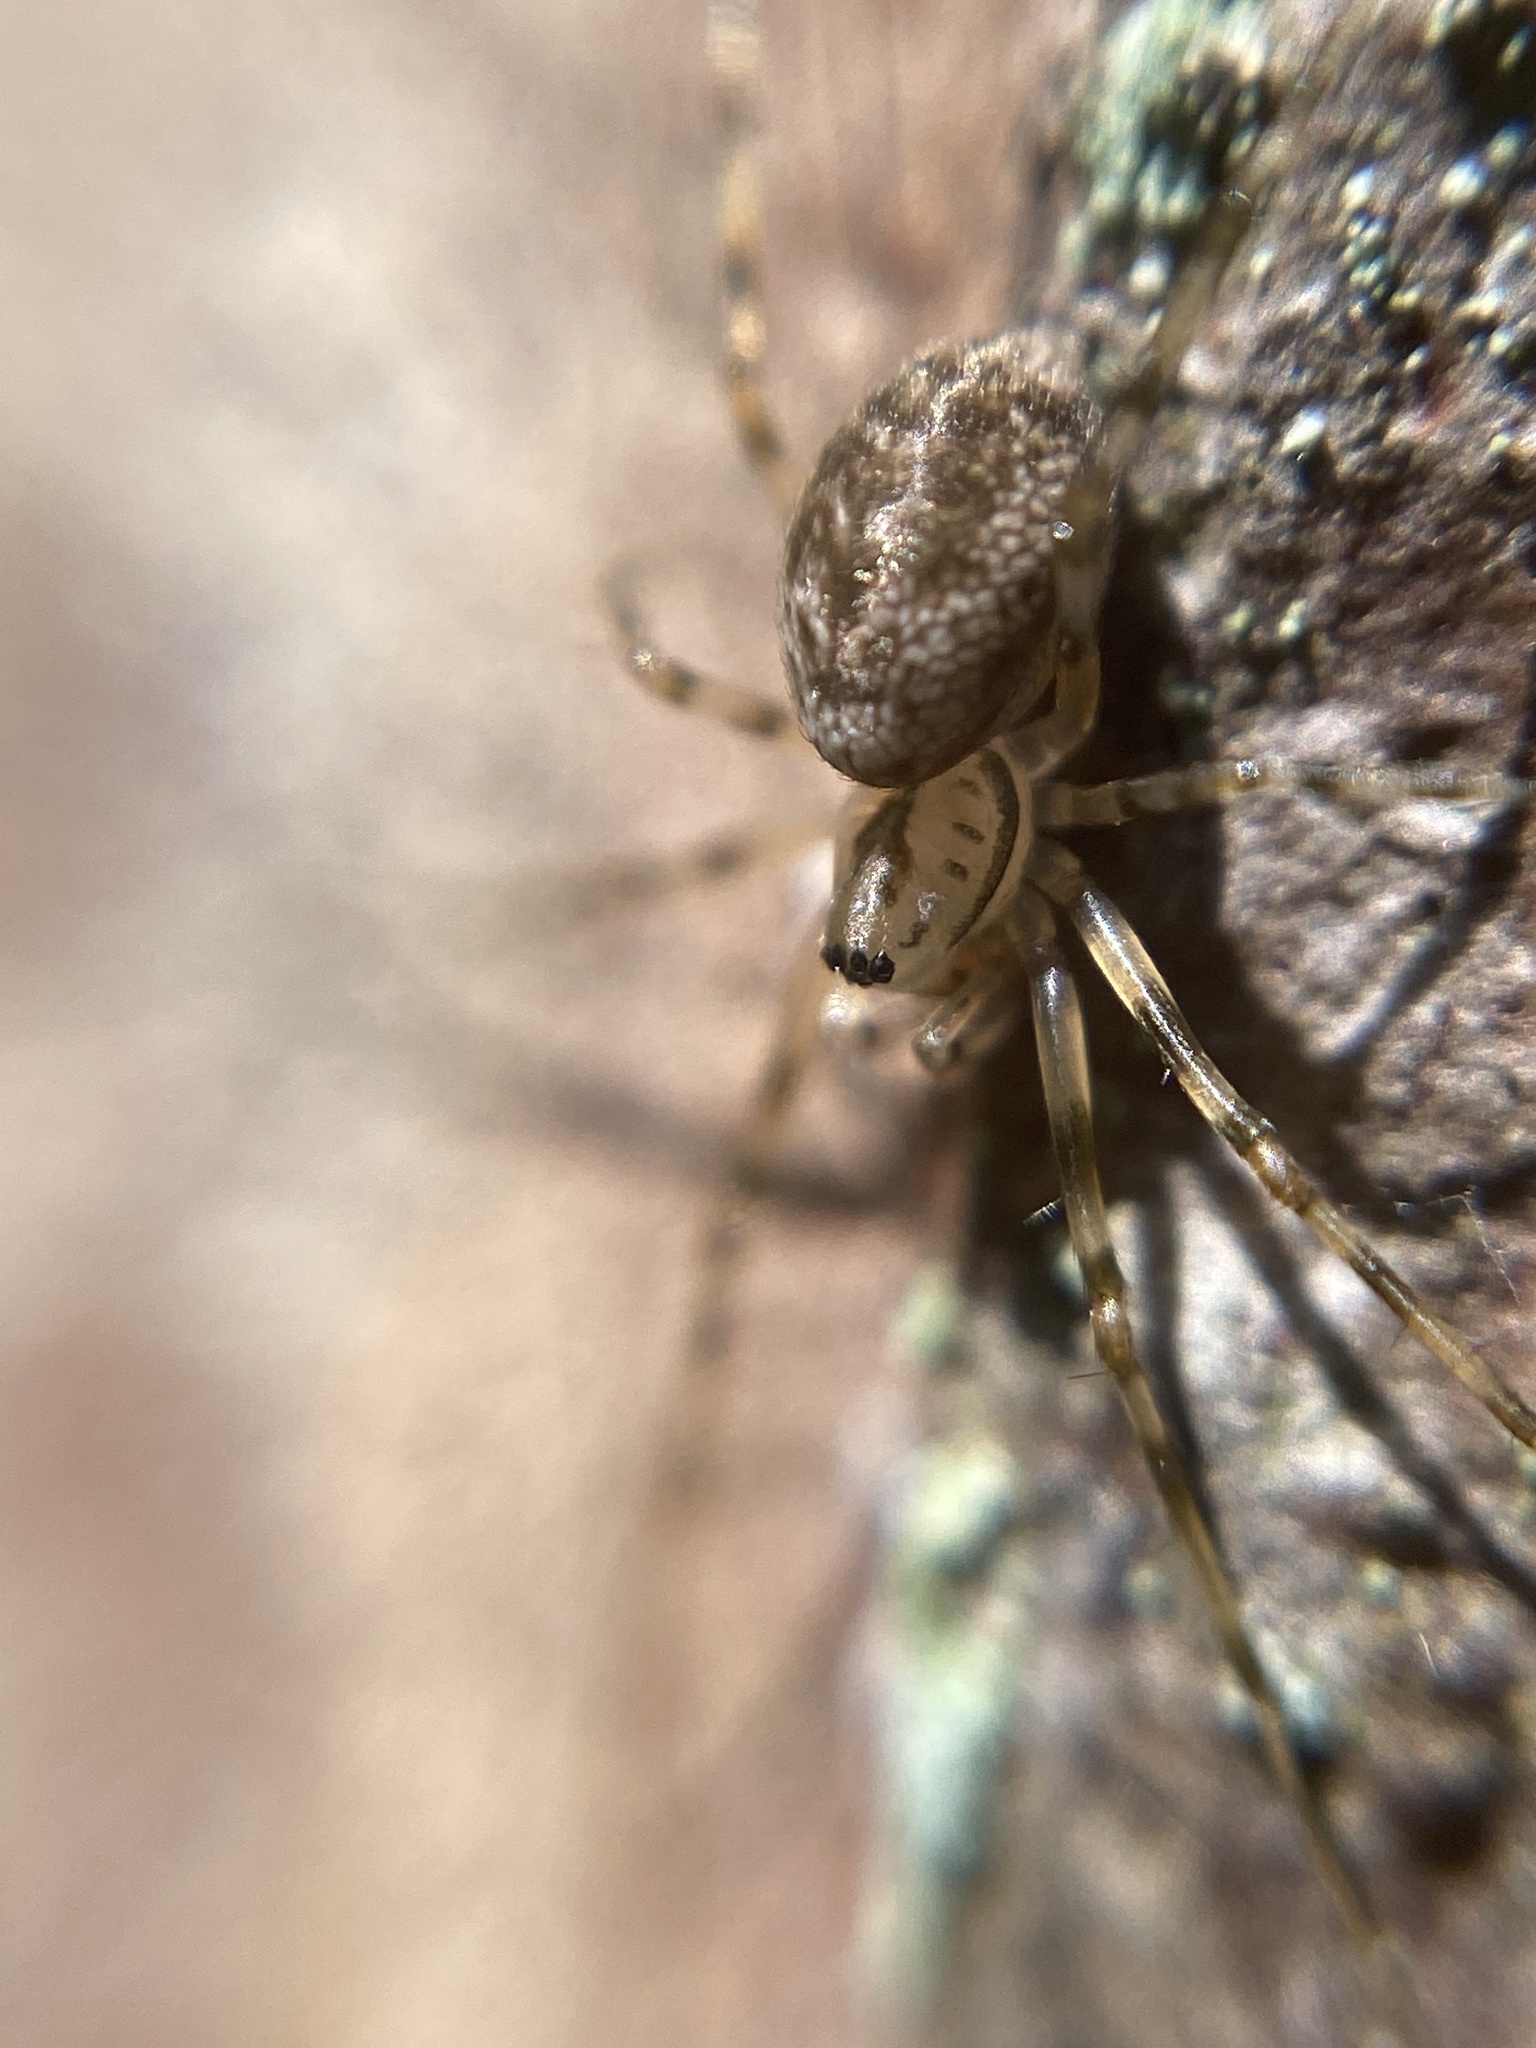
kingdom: Animalia
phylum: Arthropoda
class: Arachnida
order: Araneae
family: Linyphiidae
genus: Drapetisca
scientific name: Drapetisca socialis
